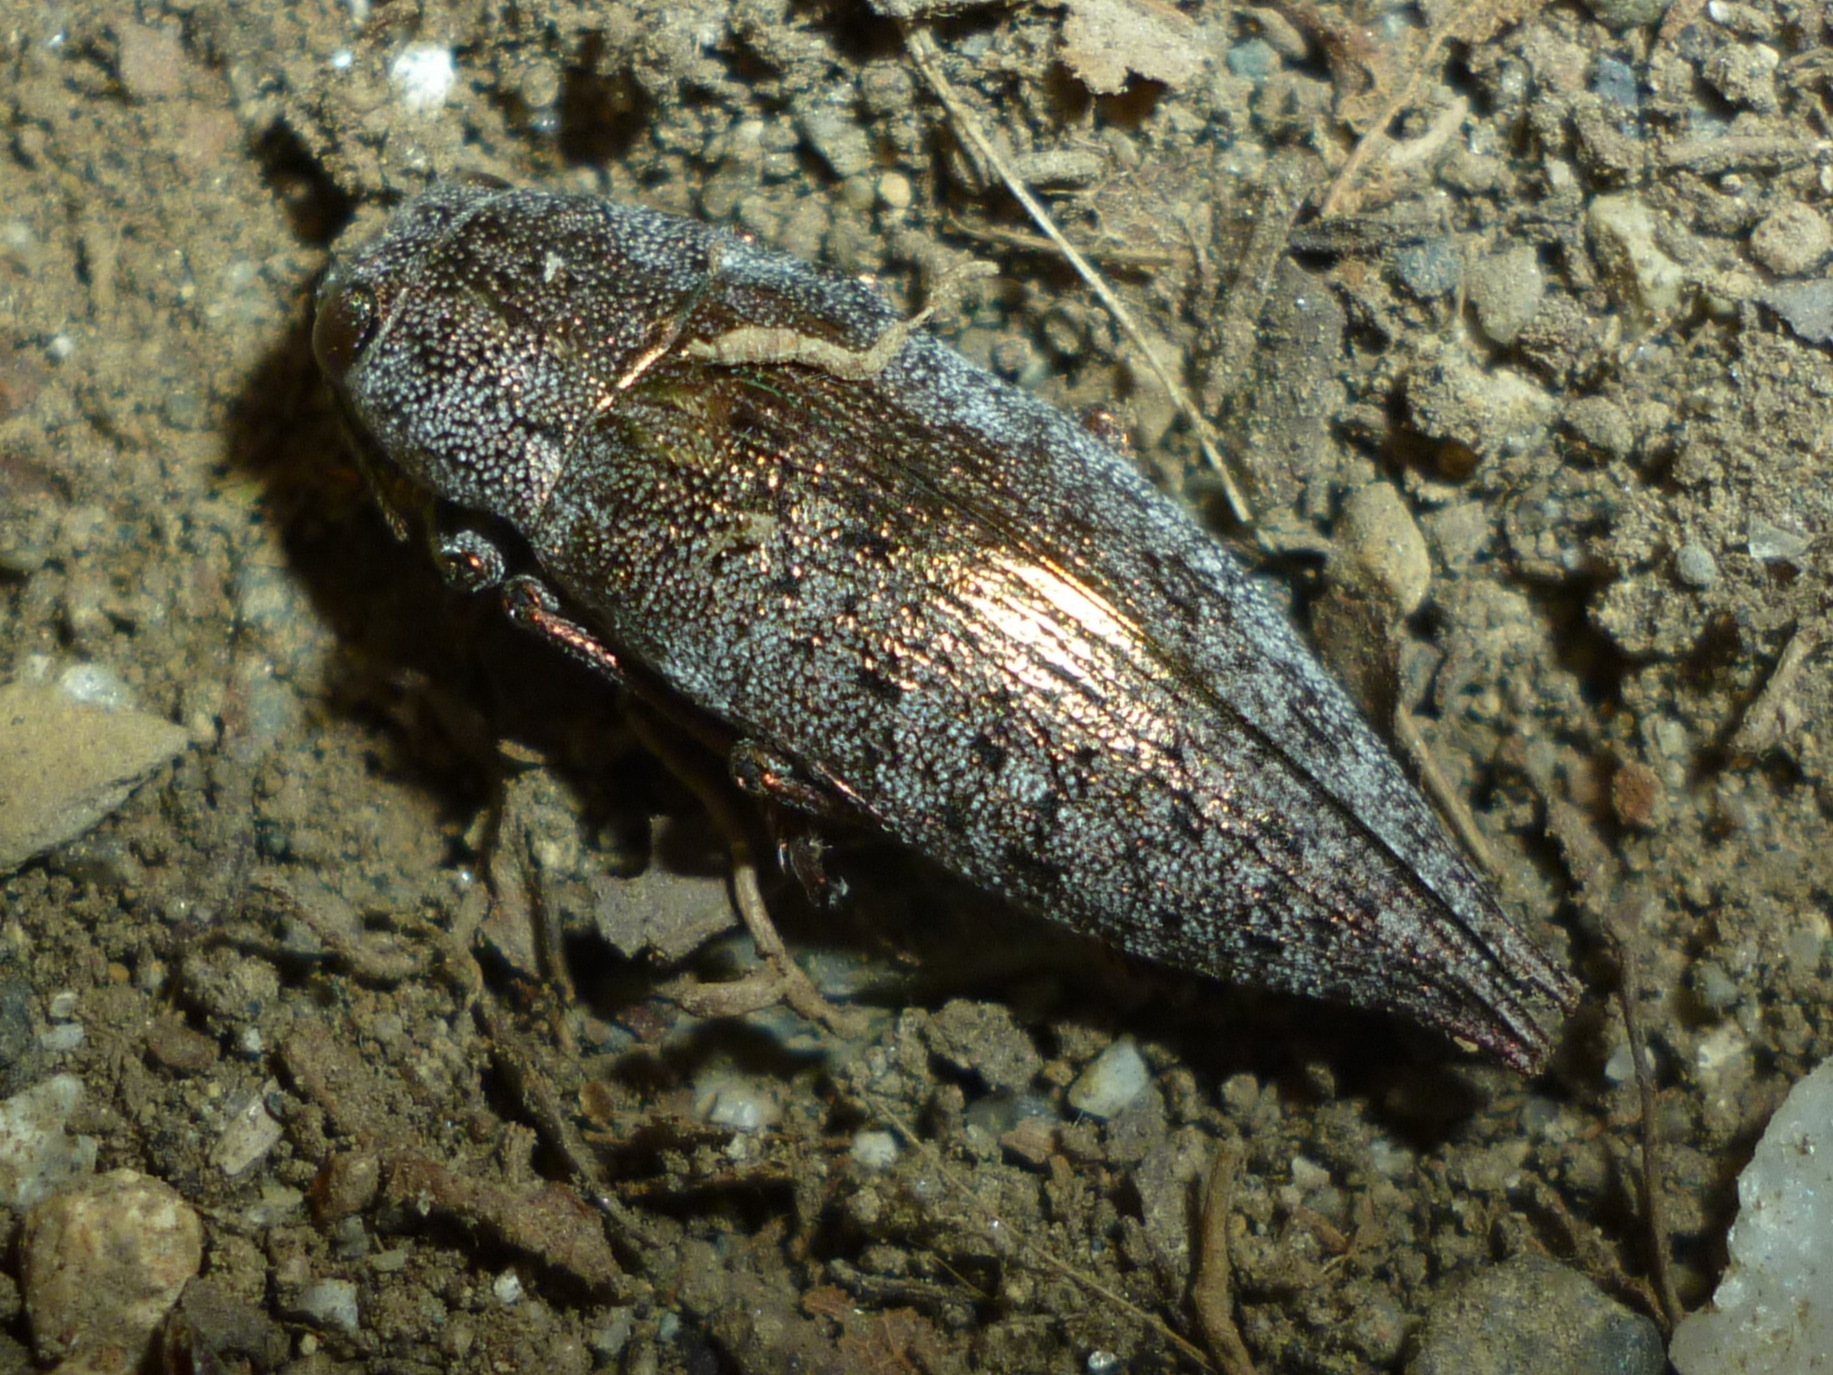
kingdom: Animalia
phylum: Arthropoda
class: Insecta
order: Coleoptera
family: Buprestidae
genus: Dicerca
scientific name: Dicerca divaricata
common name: Flat-headed hardwood borer
